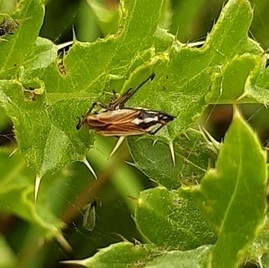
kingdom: Animalia
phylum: Arthropoda
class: Insecta
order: Hemiptera
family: Miridae
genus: Leptopterna
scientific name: Leptopterna dolabrata
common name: Meadow plant bug
